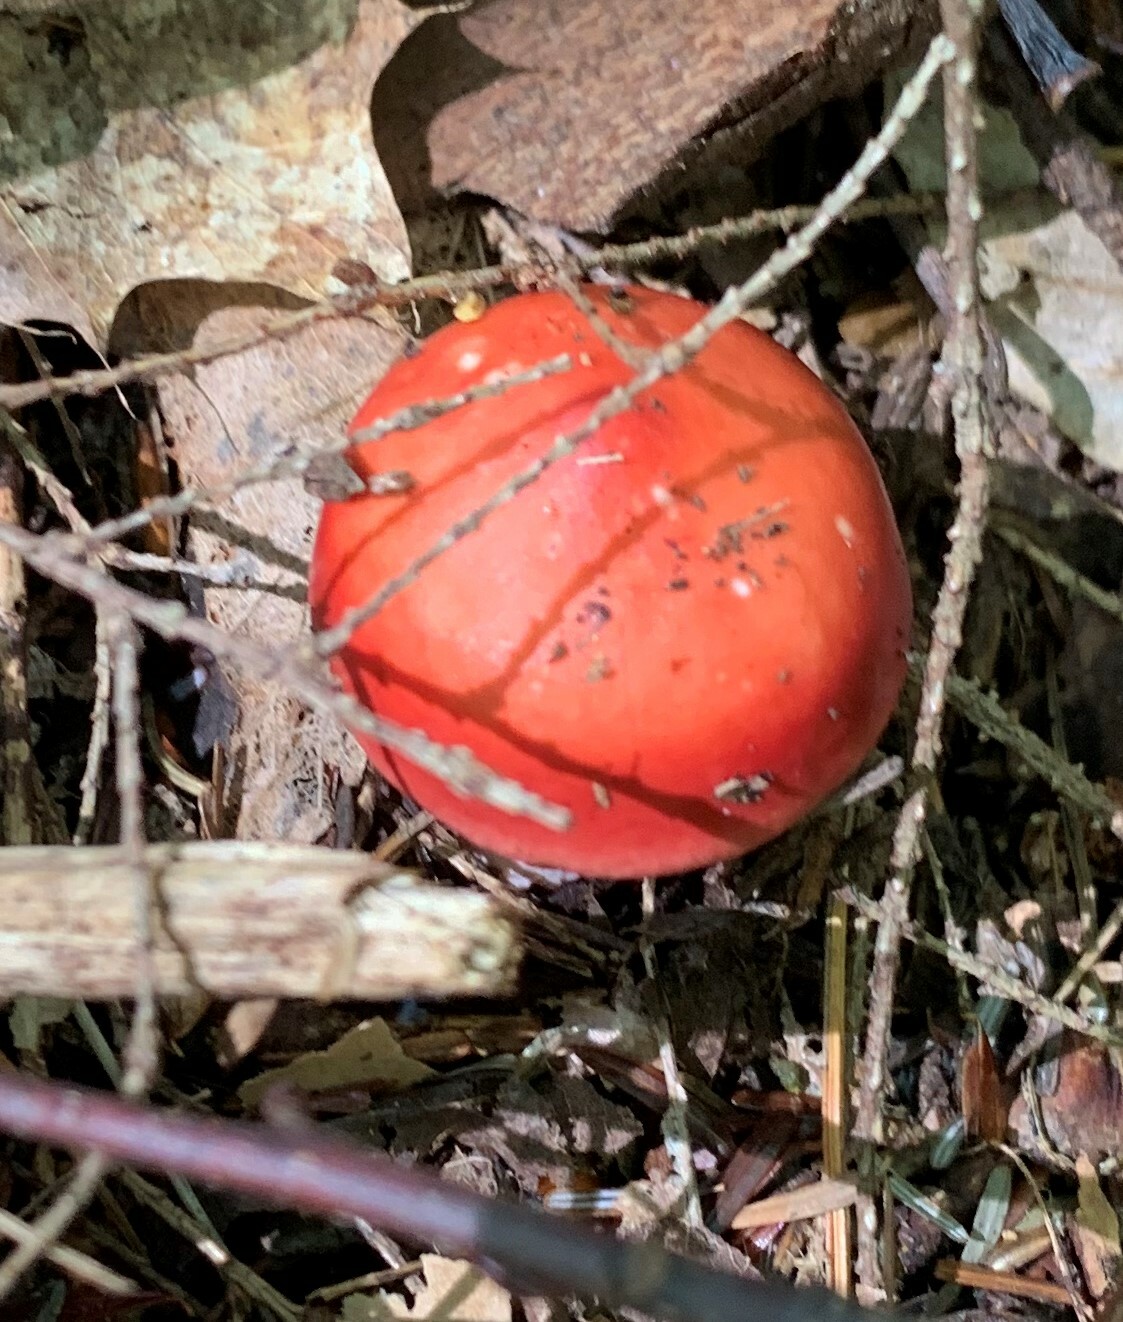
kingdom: Fungi
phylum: Basidiomycota
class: Agaricomycetes
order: Russulales
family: Russulaceae
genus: Russula
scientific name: Russula
